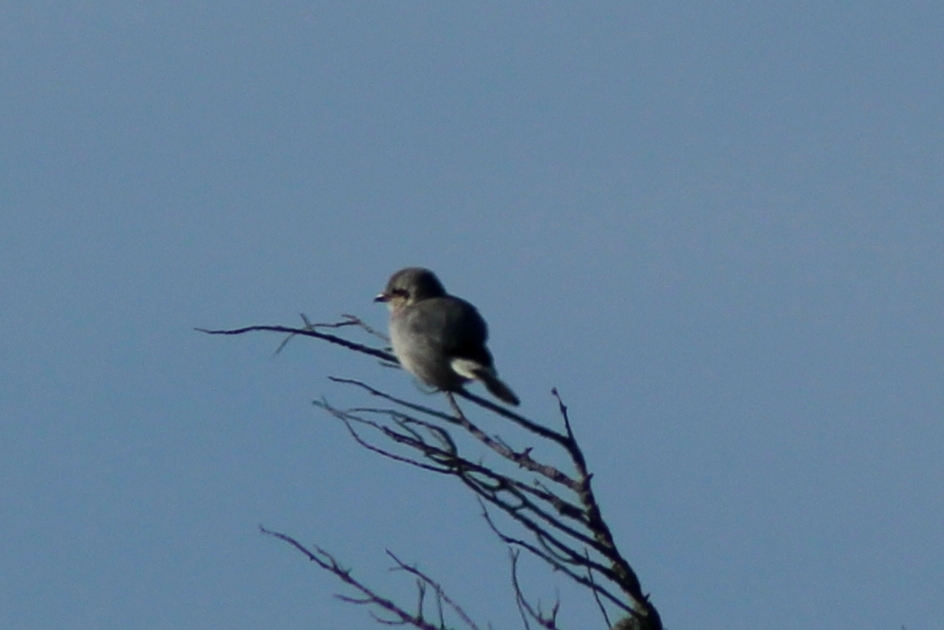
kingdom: Animalia
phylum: Chordata
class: Aves
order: Passeriformes
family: Laniidae
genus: Lanius
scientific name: Lanius borealis
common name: Northern shrike
